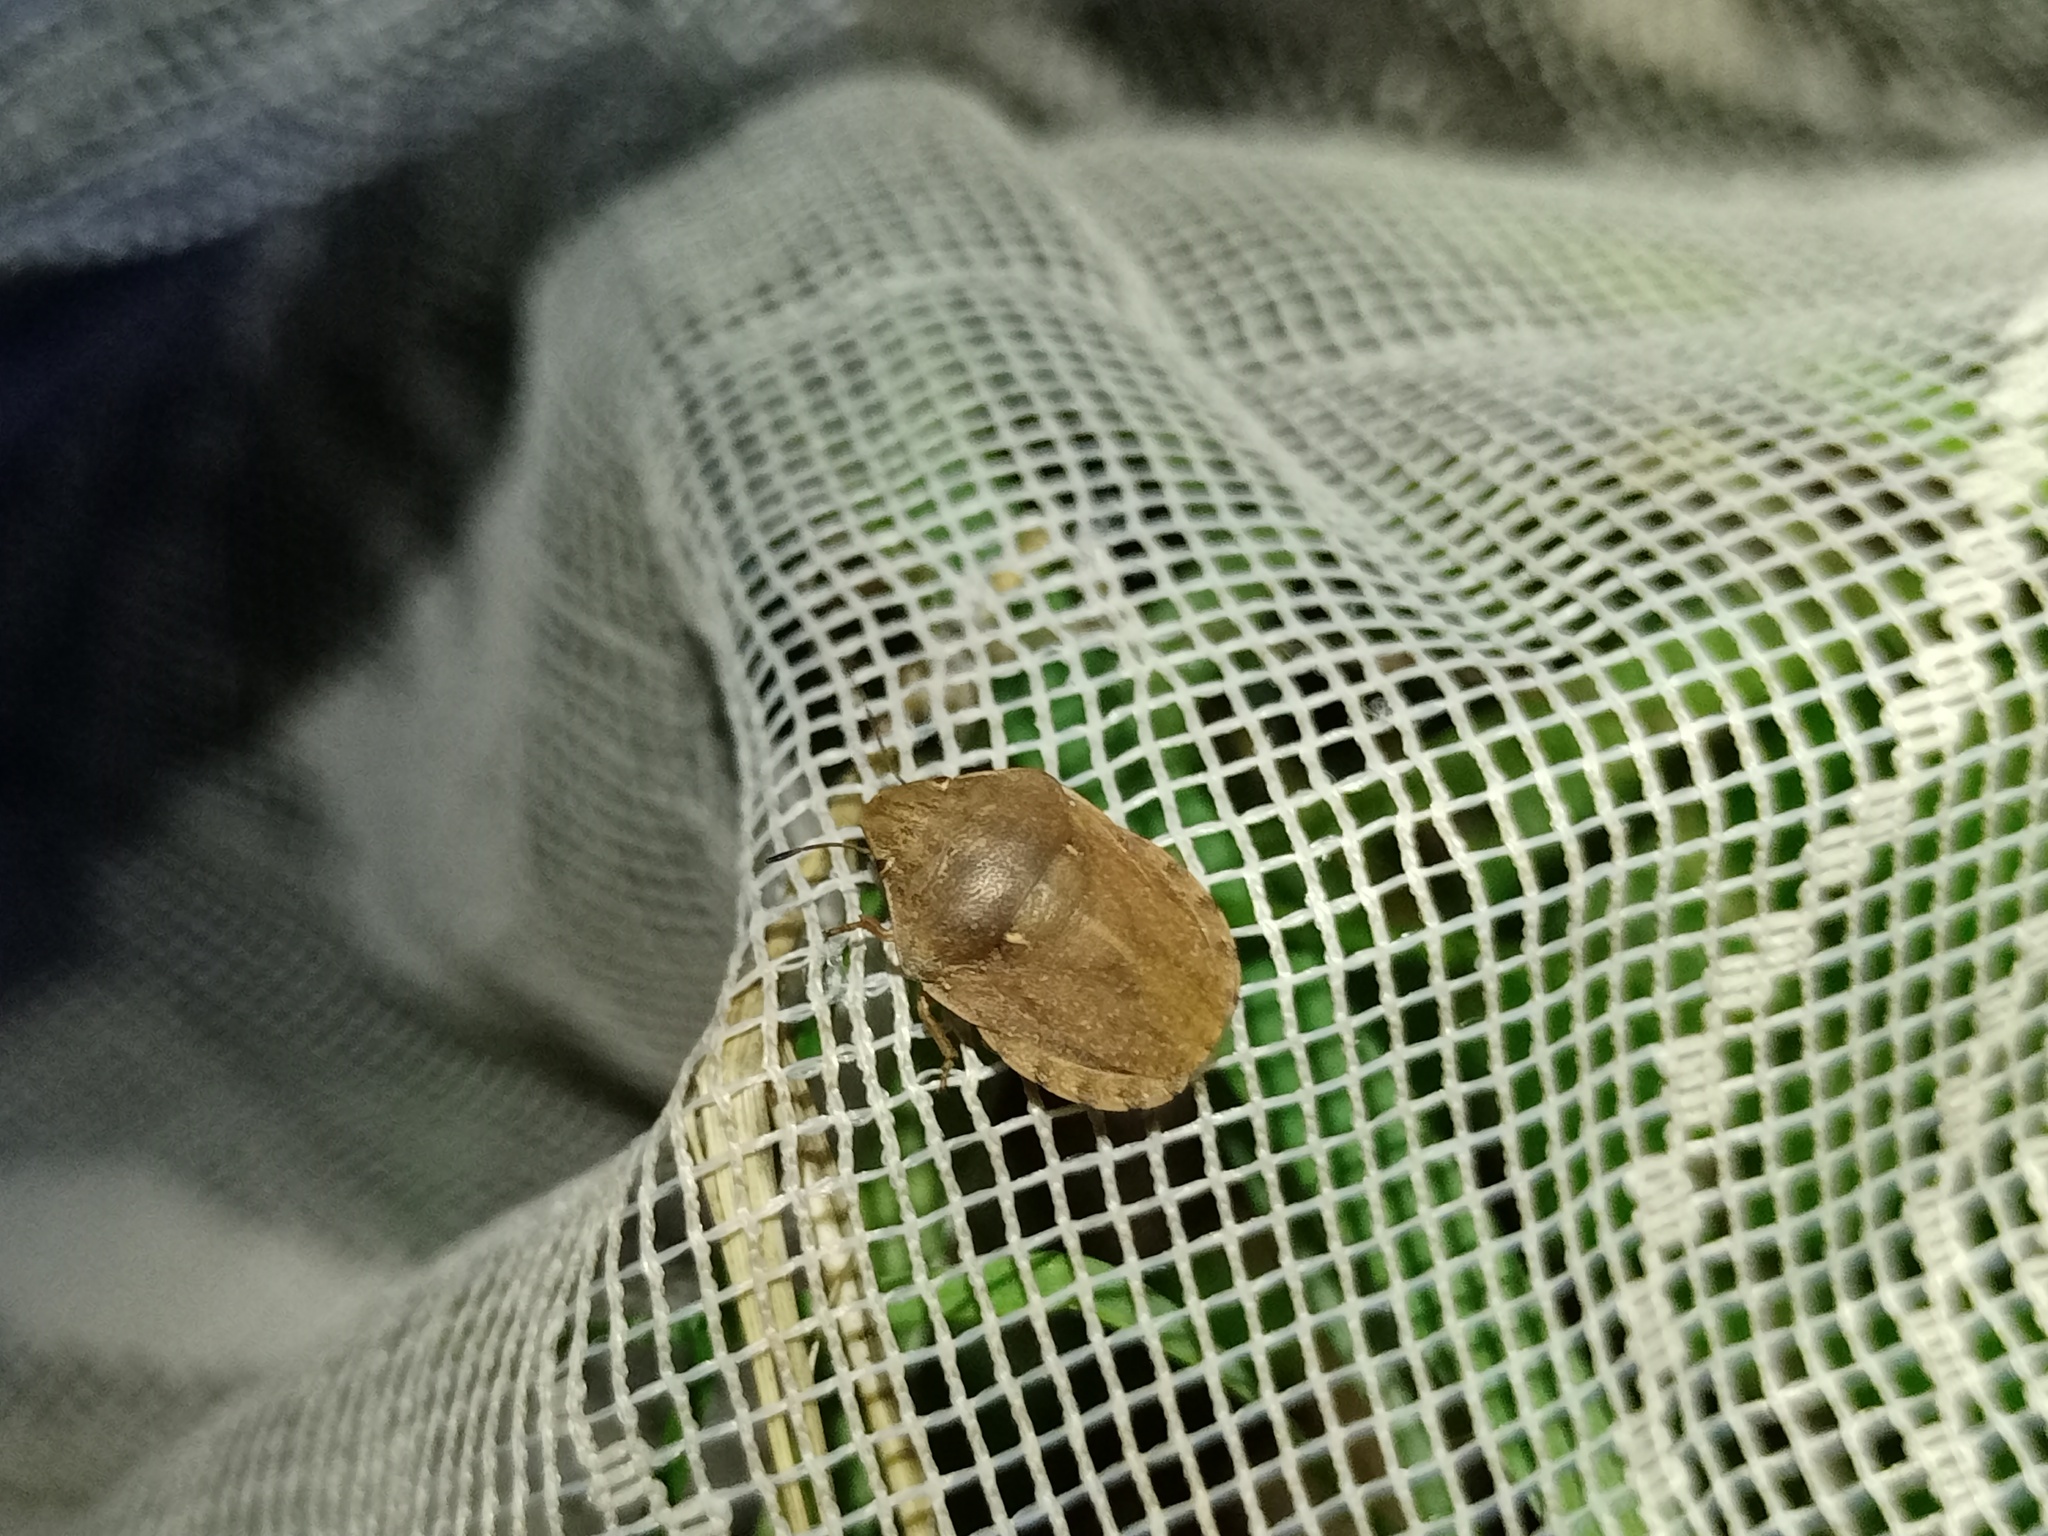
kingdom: Animalia
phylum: Arthropoda
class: Insecta
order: Hemiptera
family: Scutelleridae
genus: Eurygaster
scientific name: Eurygaster testudinaria
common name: Tortoise bug
